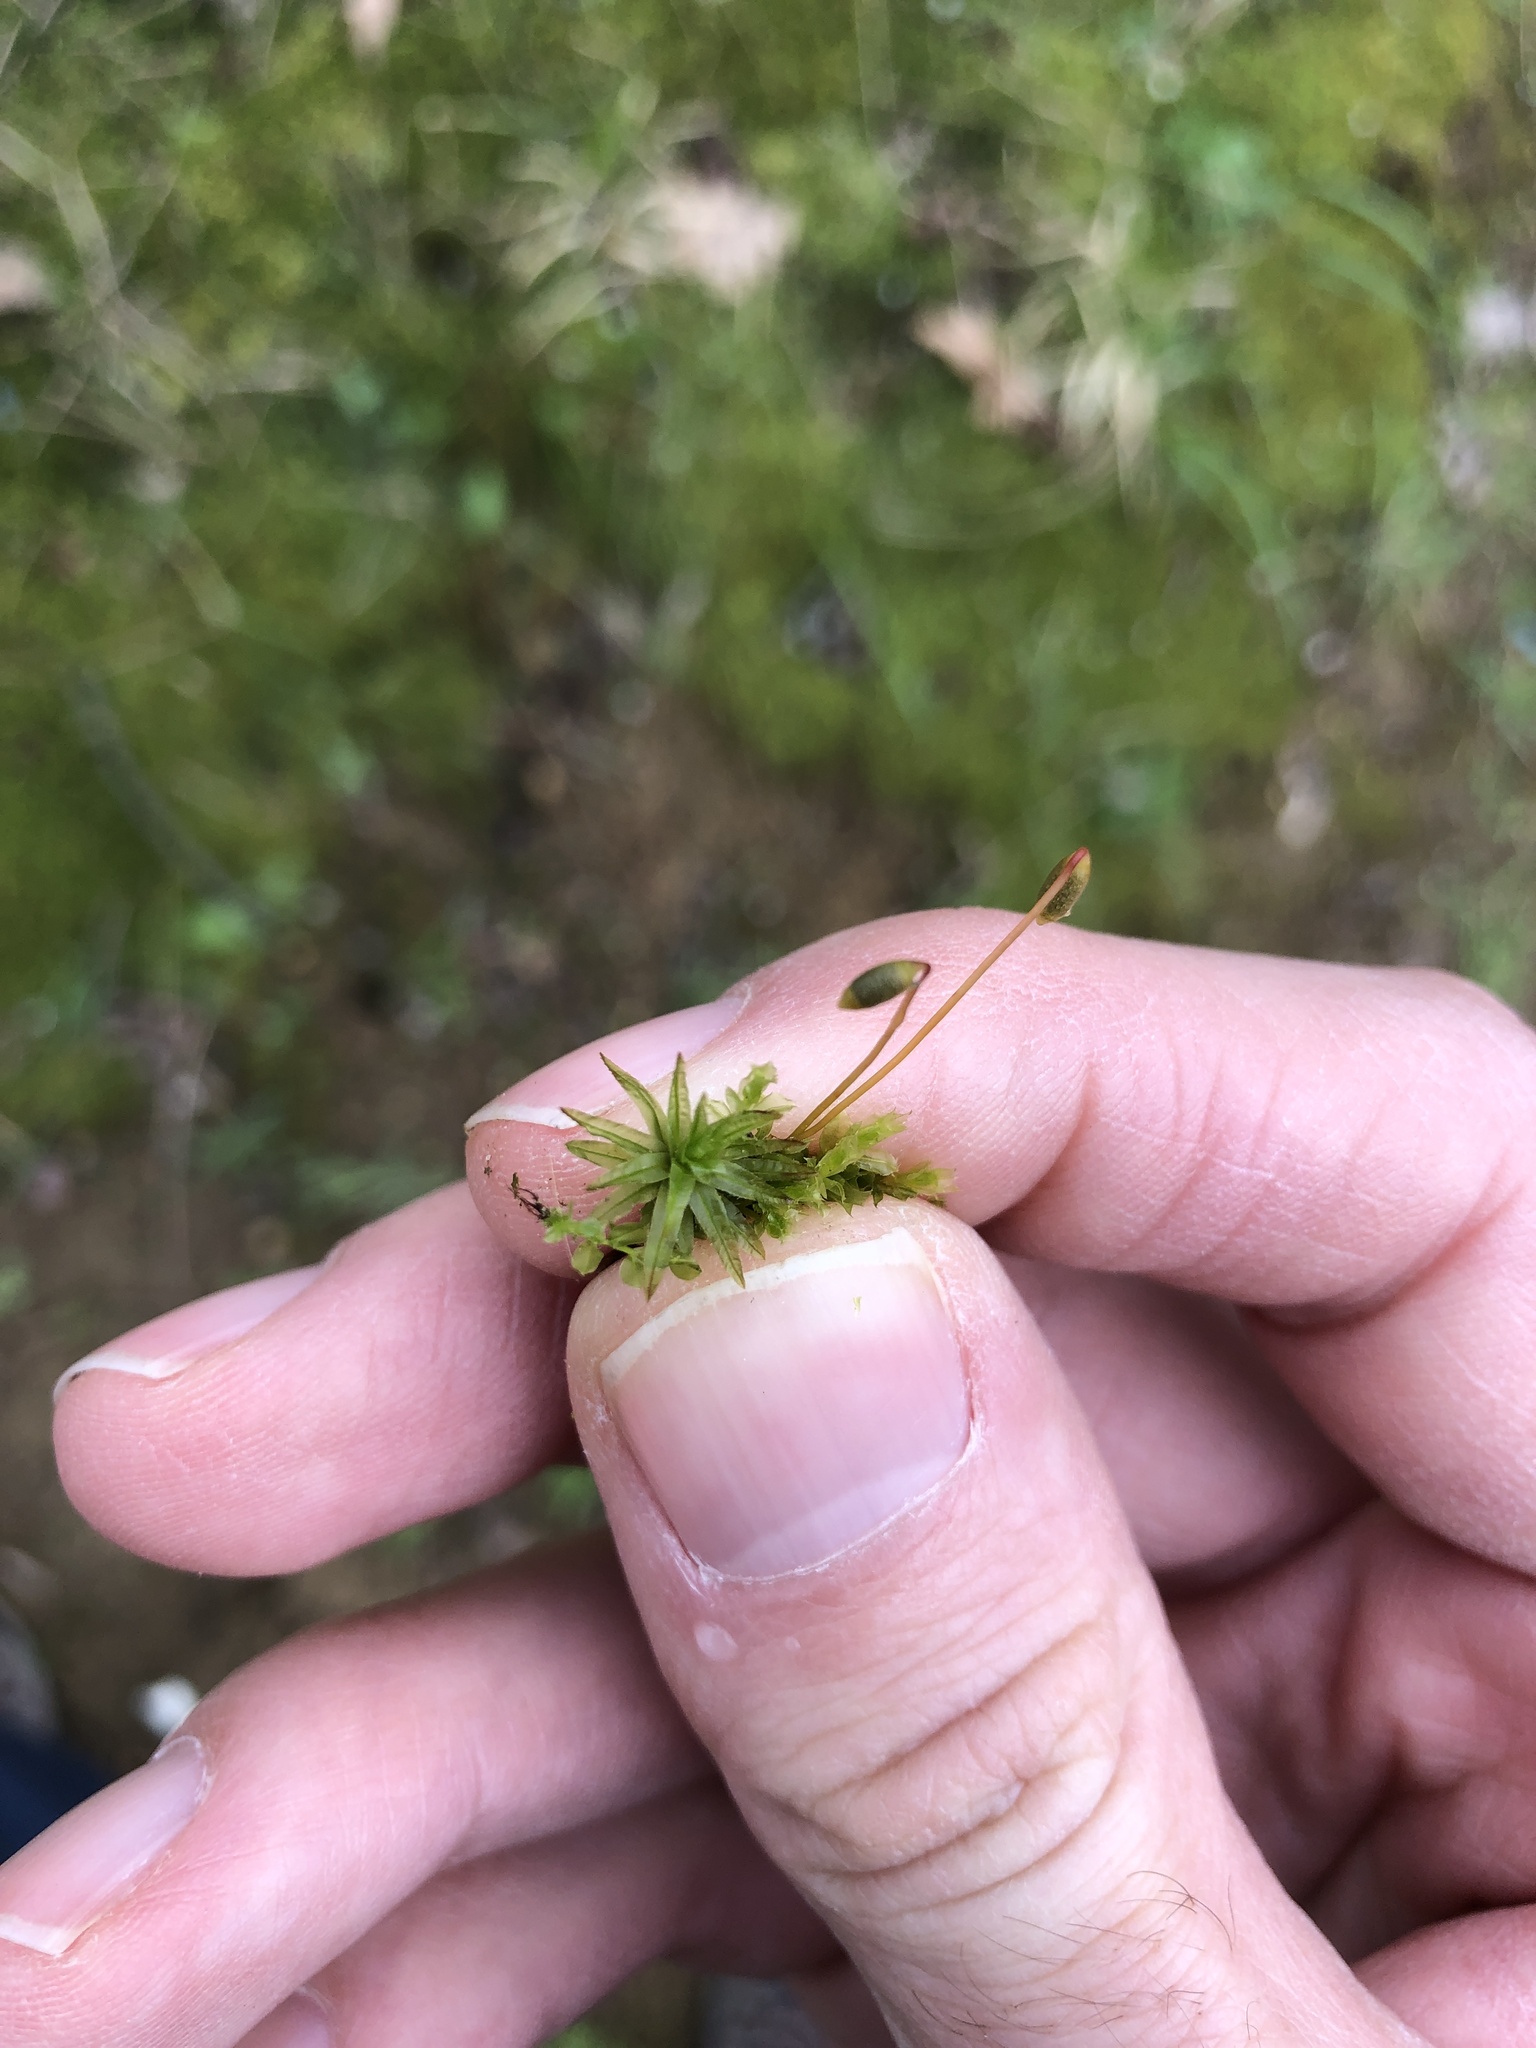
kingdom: Plantae
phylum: Bryophyta
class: Polytrichopsida
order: Polytrichales
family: Polytrichaceae
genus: Atrichum
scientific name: Atrichum undulatum
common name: Common smoothcap
